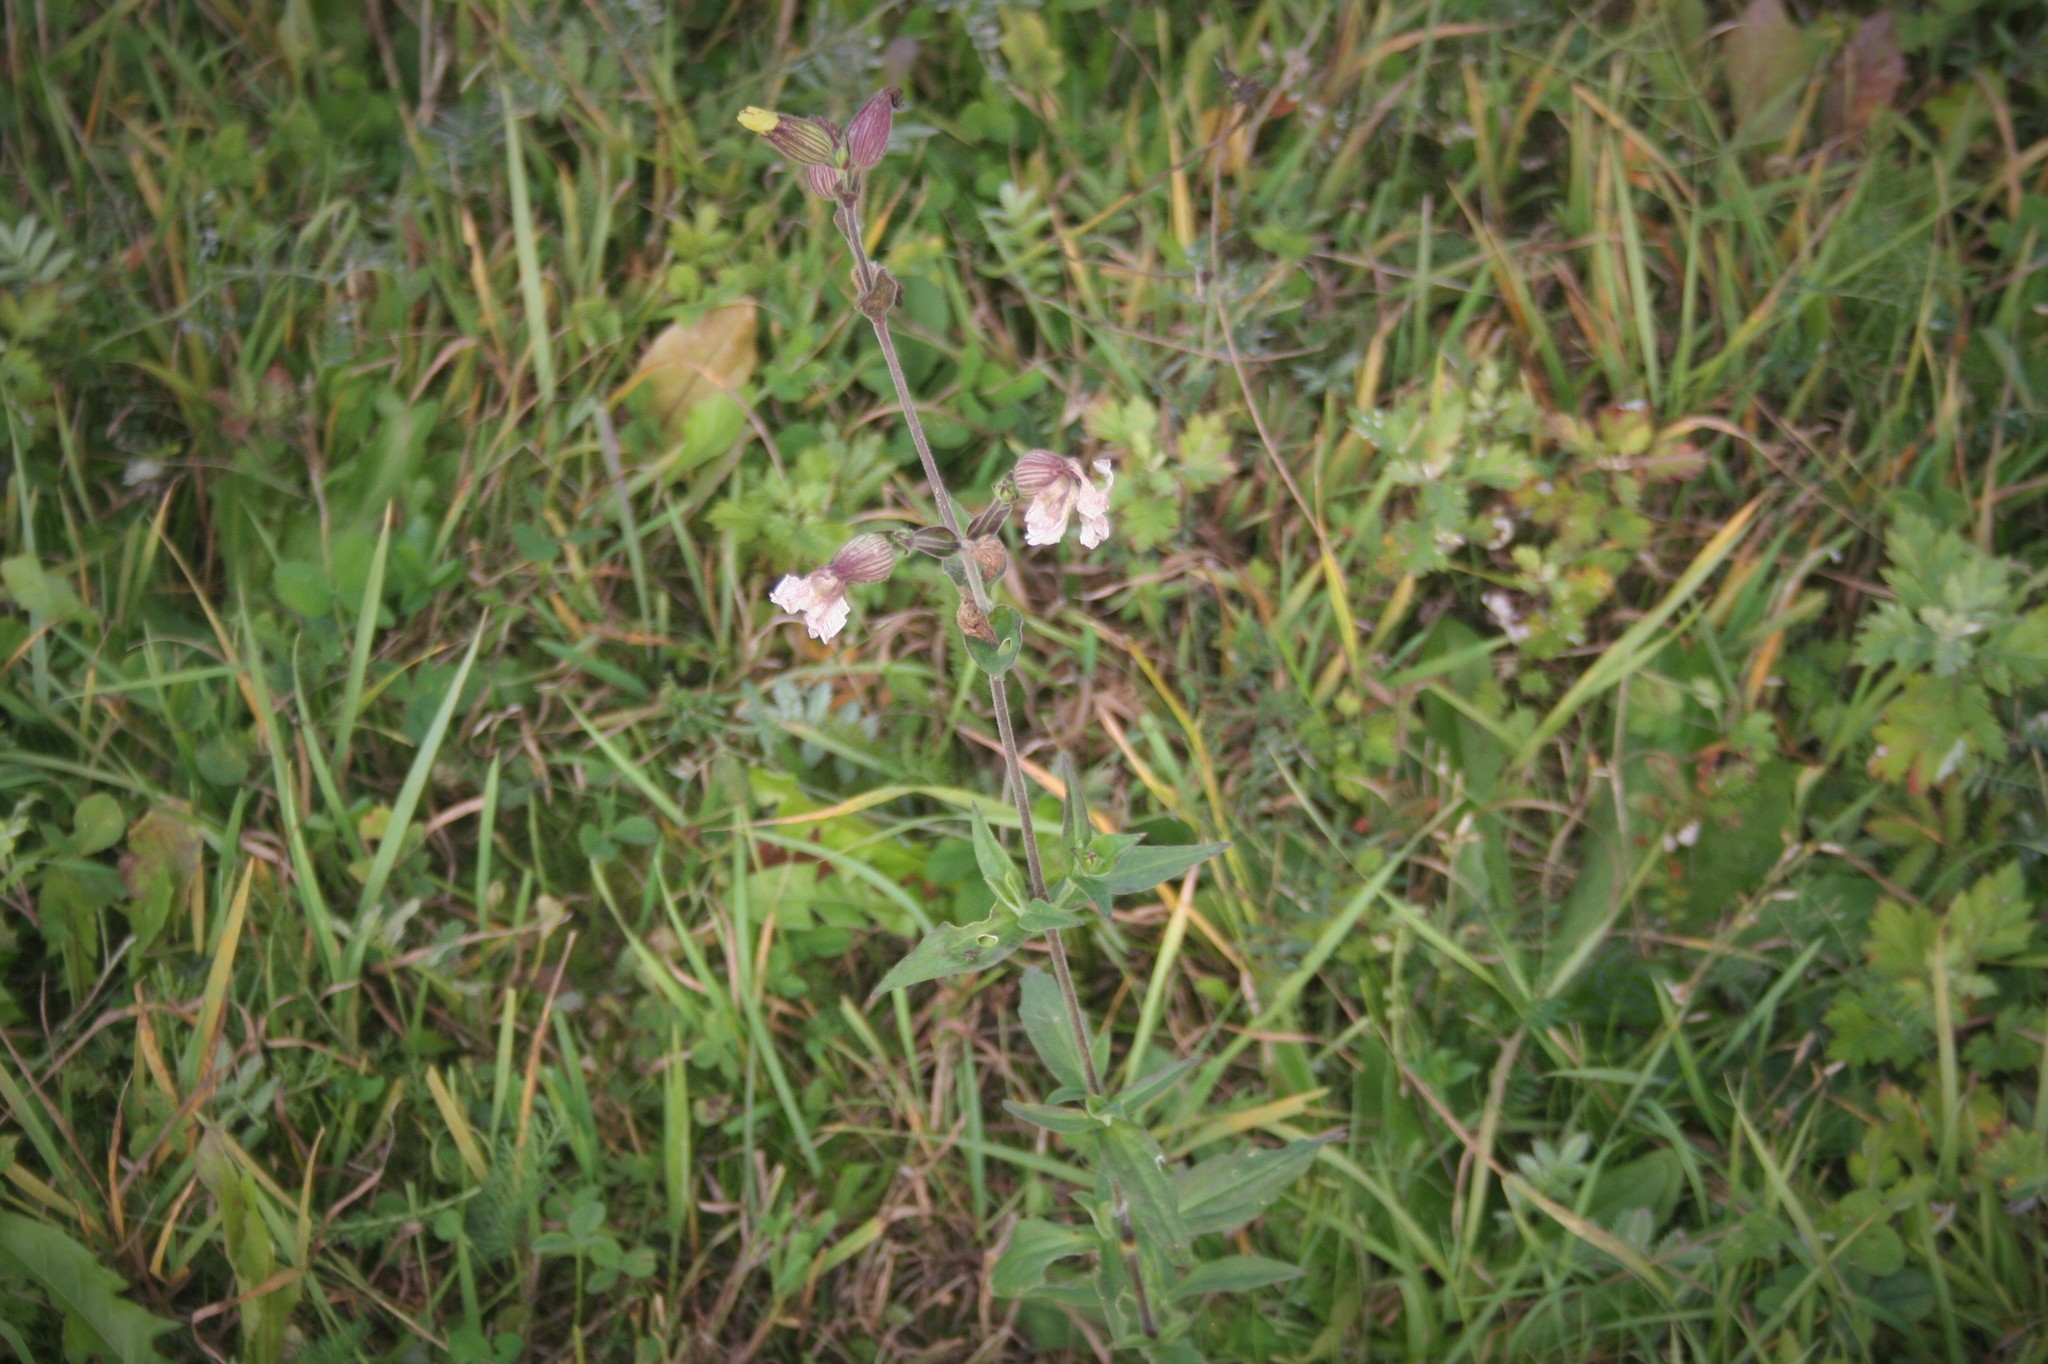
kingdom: Plantae
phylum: Tracheophyta
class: Magnoliopsida
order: Caryophyllales
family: Caryophyllaceae
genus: Silene
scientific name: Silene latifolia
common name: White campion
